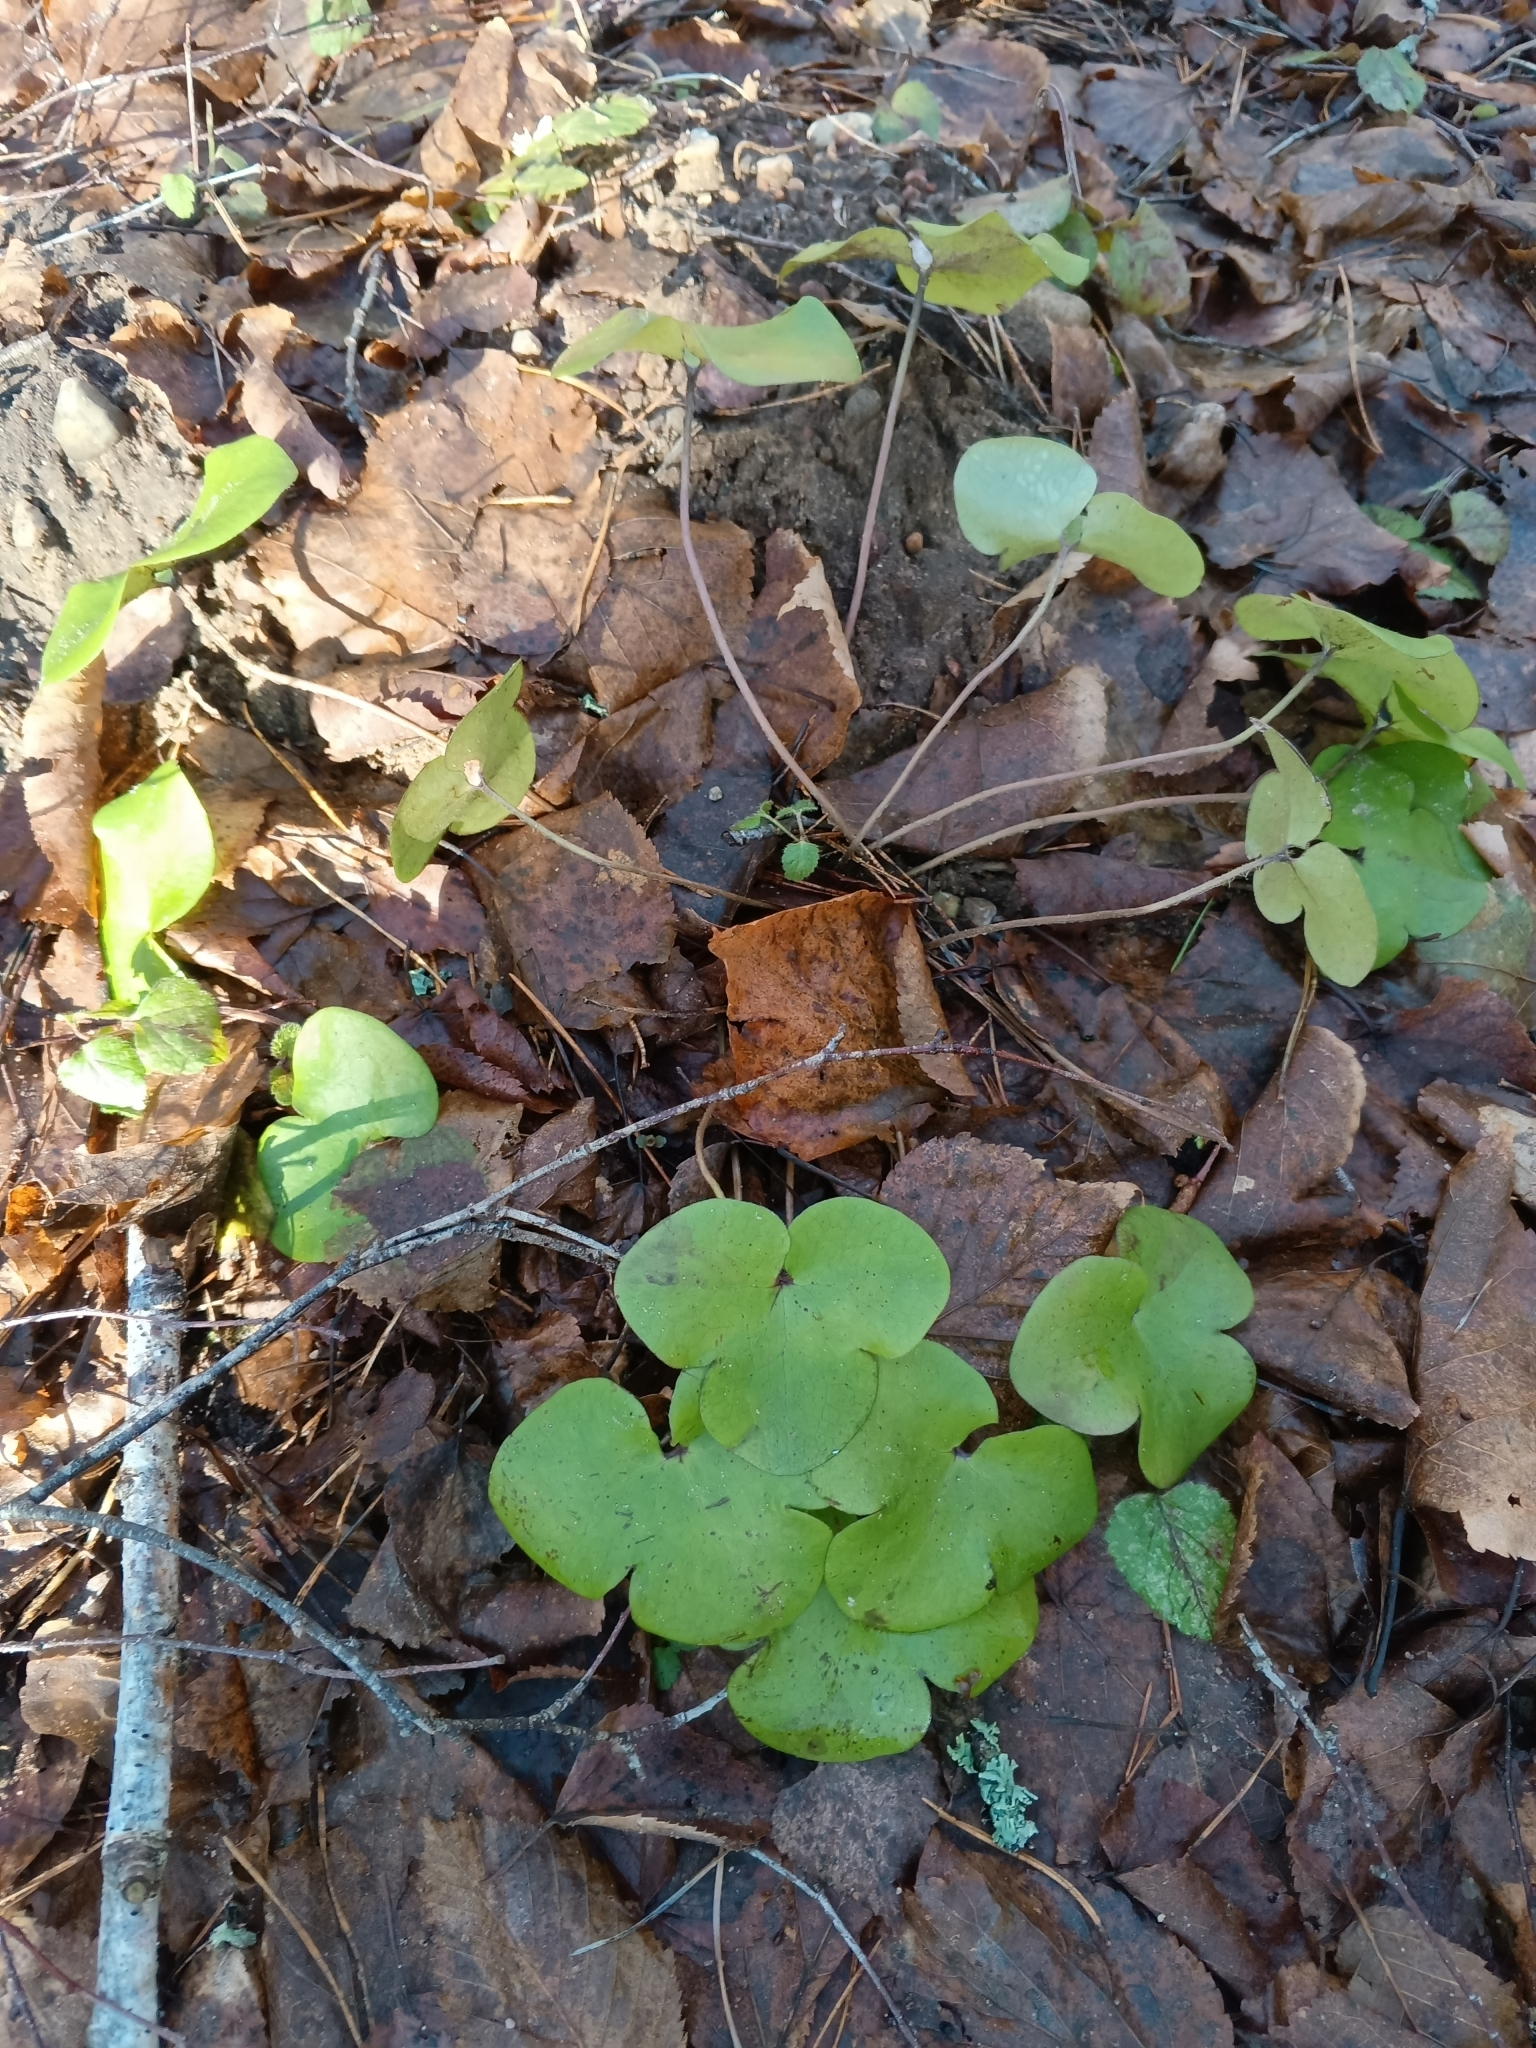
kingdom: Plantae
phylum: Tracheophyta
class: Magnoliopsida
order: Ranunculales
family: Ranunculaceae
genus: Hepatica
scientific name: Hepatica nobilis
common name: Liverleaf
